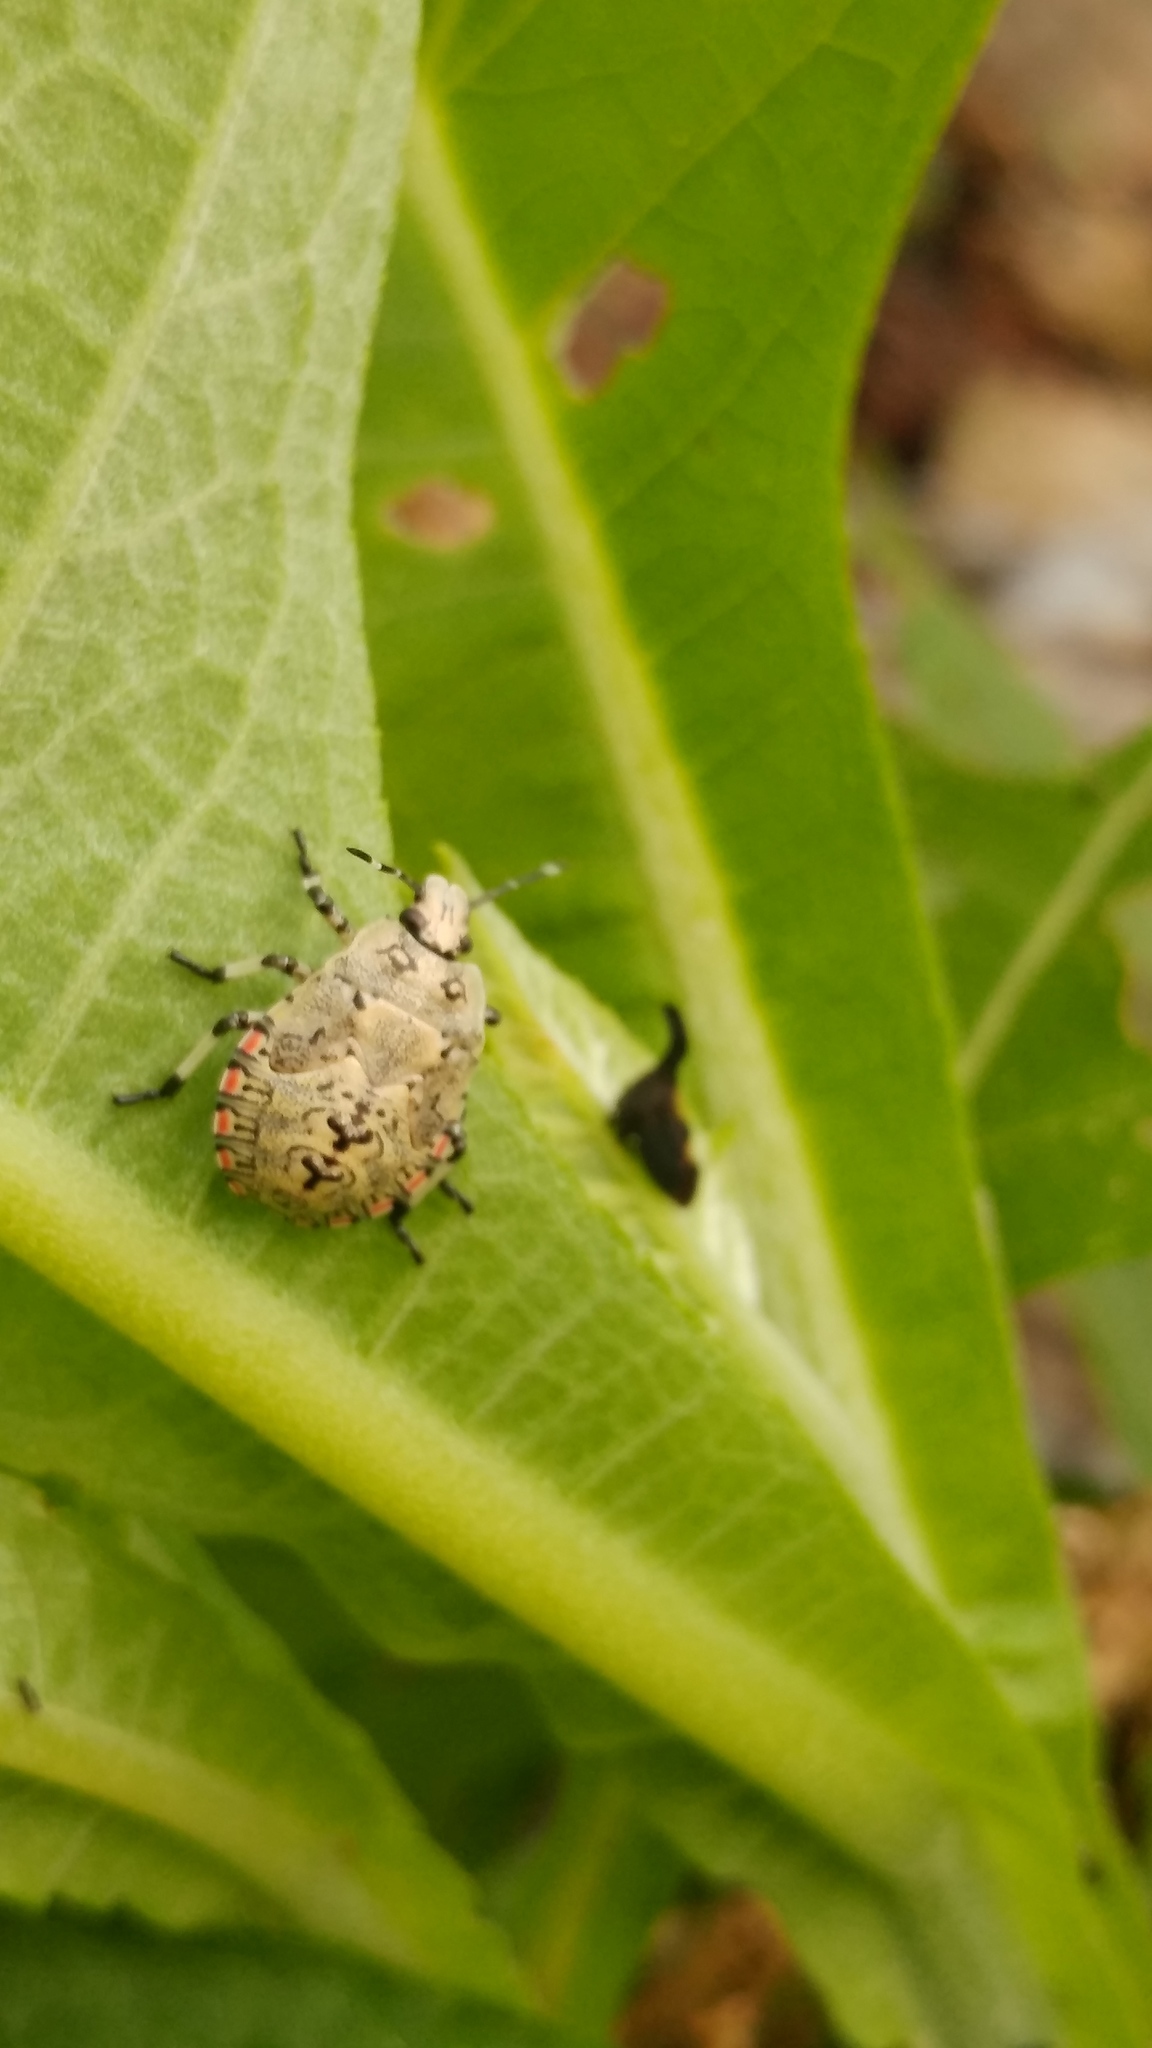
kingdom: Animalia
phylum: Arthropoda
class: Insecta
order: Hemiptera
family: Pentatomidae
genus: Apateticus
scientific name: Apateticus lineolatus
